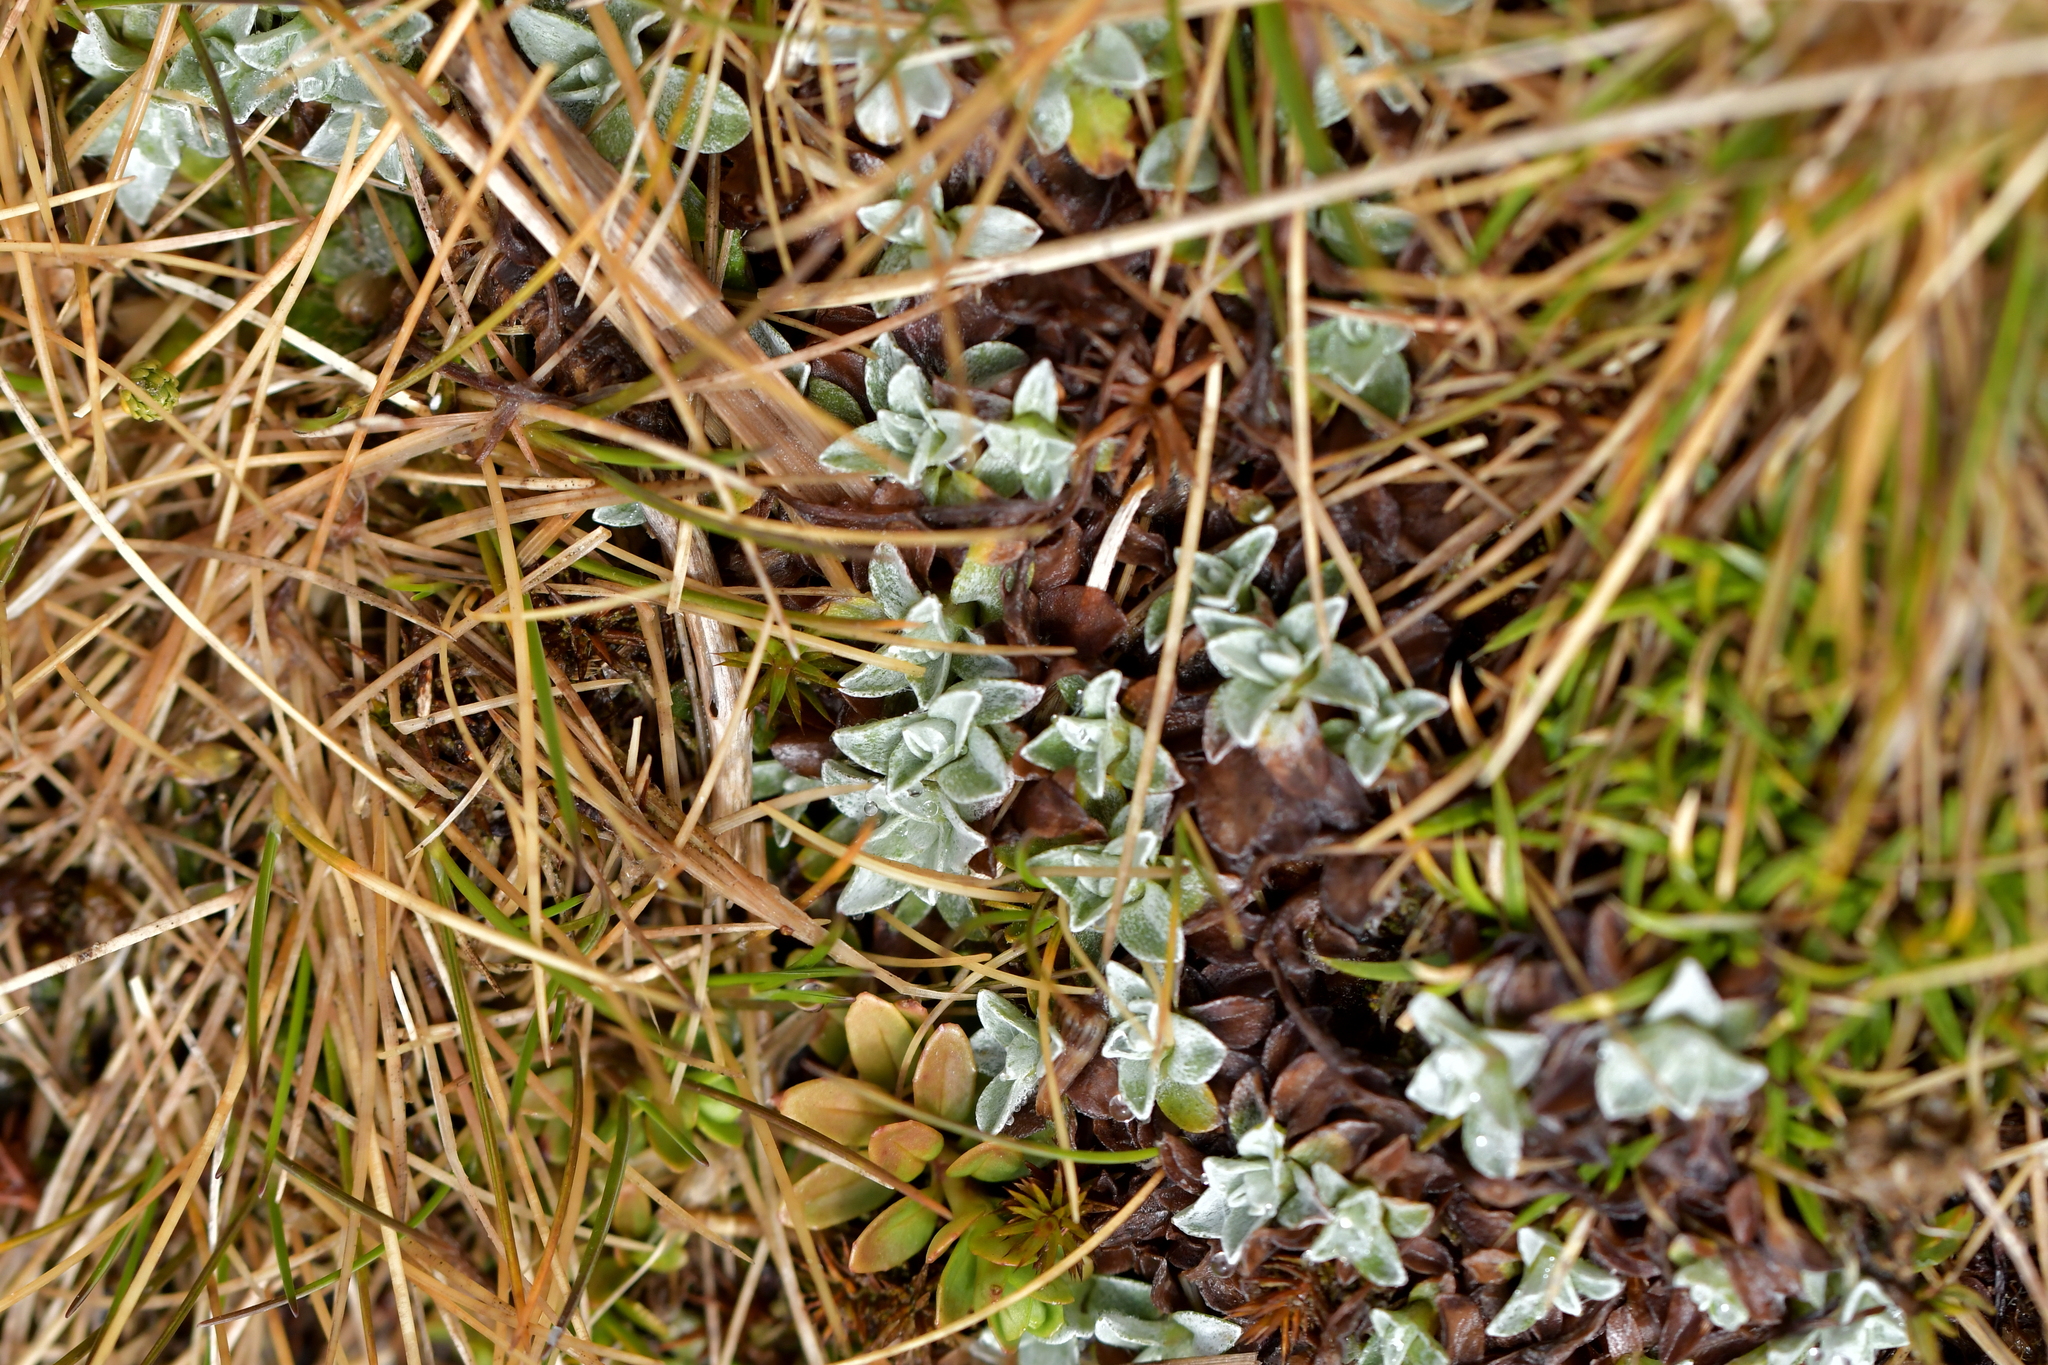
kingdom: Plantae
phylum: Tracheophyta
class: Magnoliopsida
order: Asterales
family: Asteraceae
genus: Argyrotegium
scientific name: Argyrotegium mackayi
